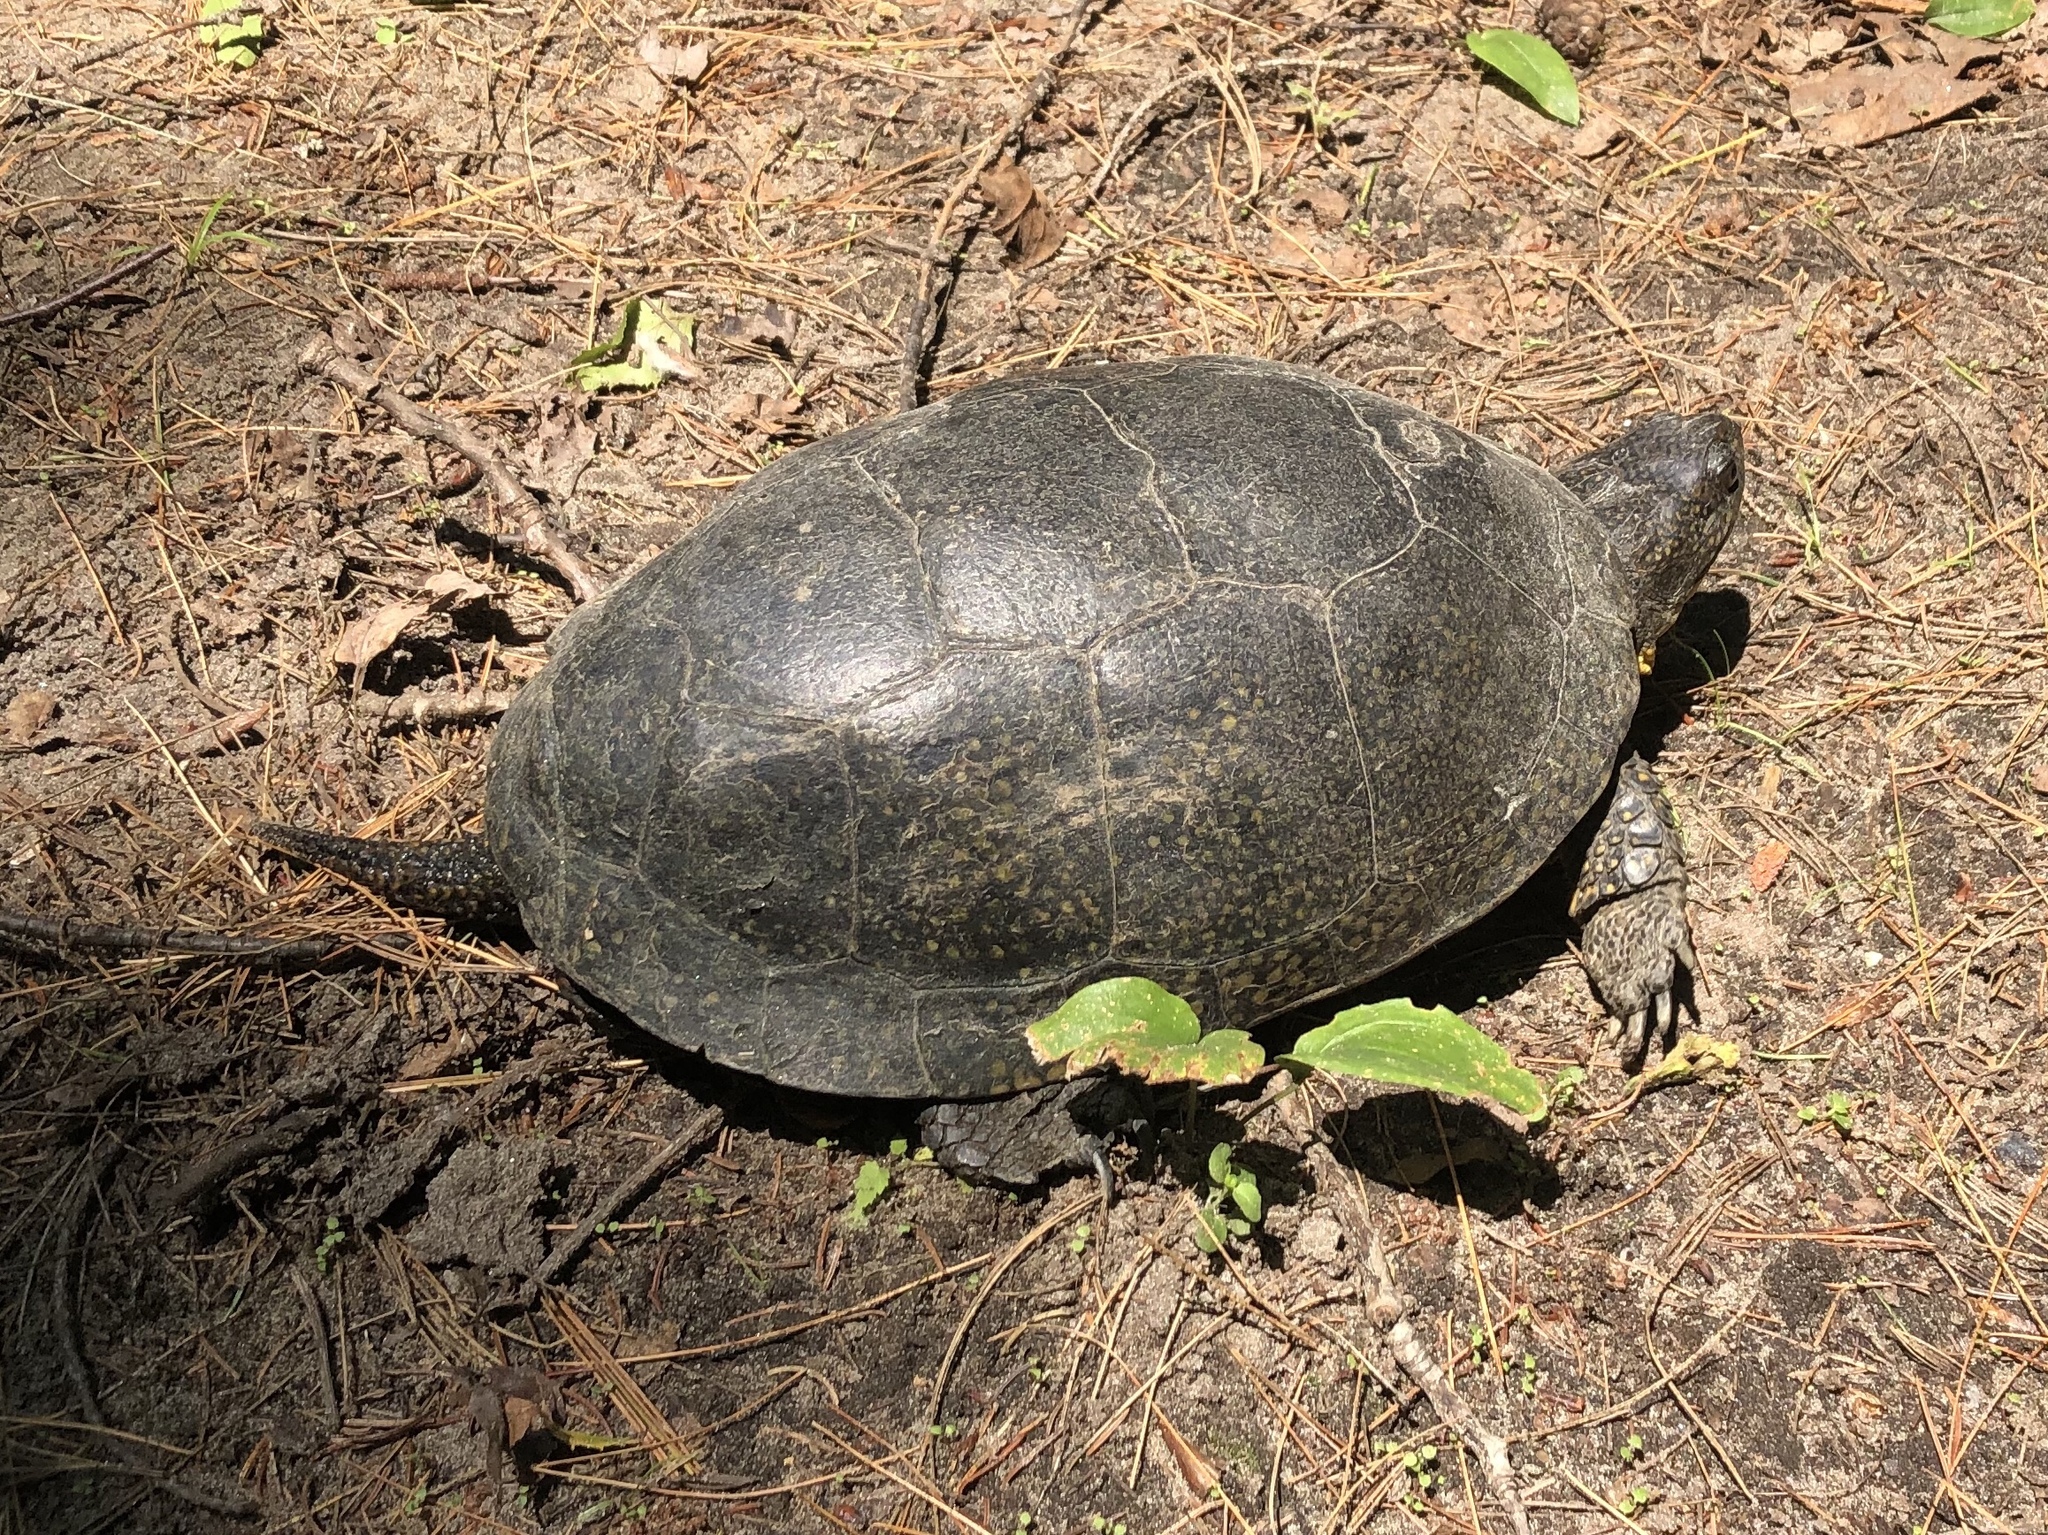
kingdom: Animalia
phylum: Chordata
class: Testudines
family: Emydidae
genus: Emys
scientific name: Emys blandingii
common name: Blanding's turtle
